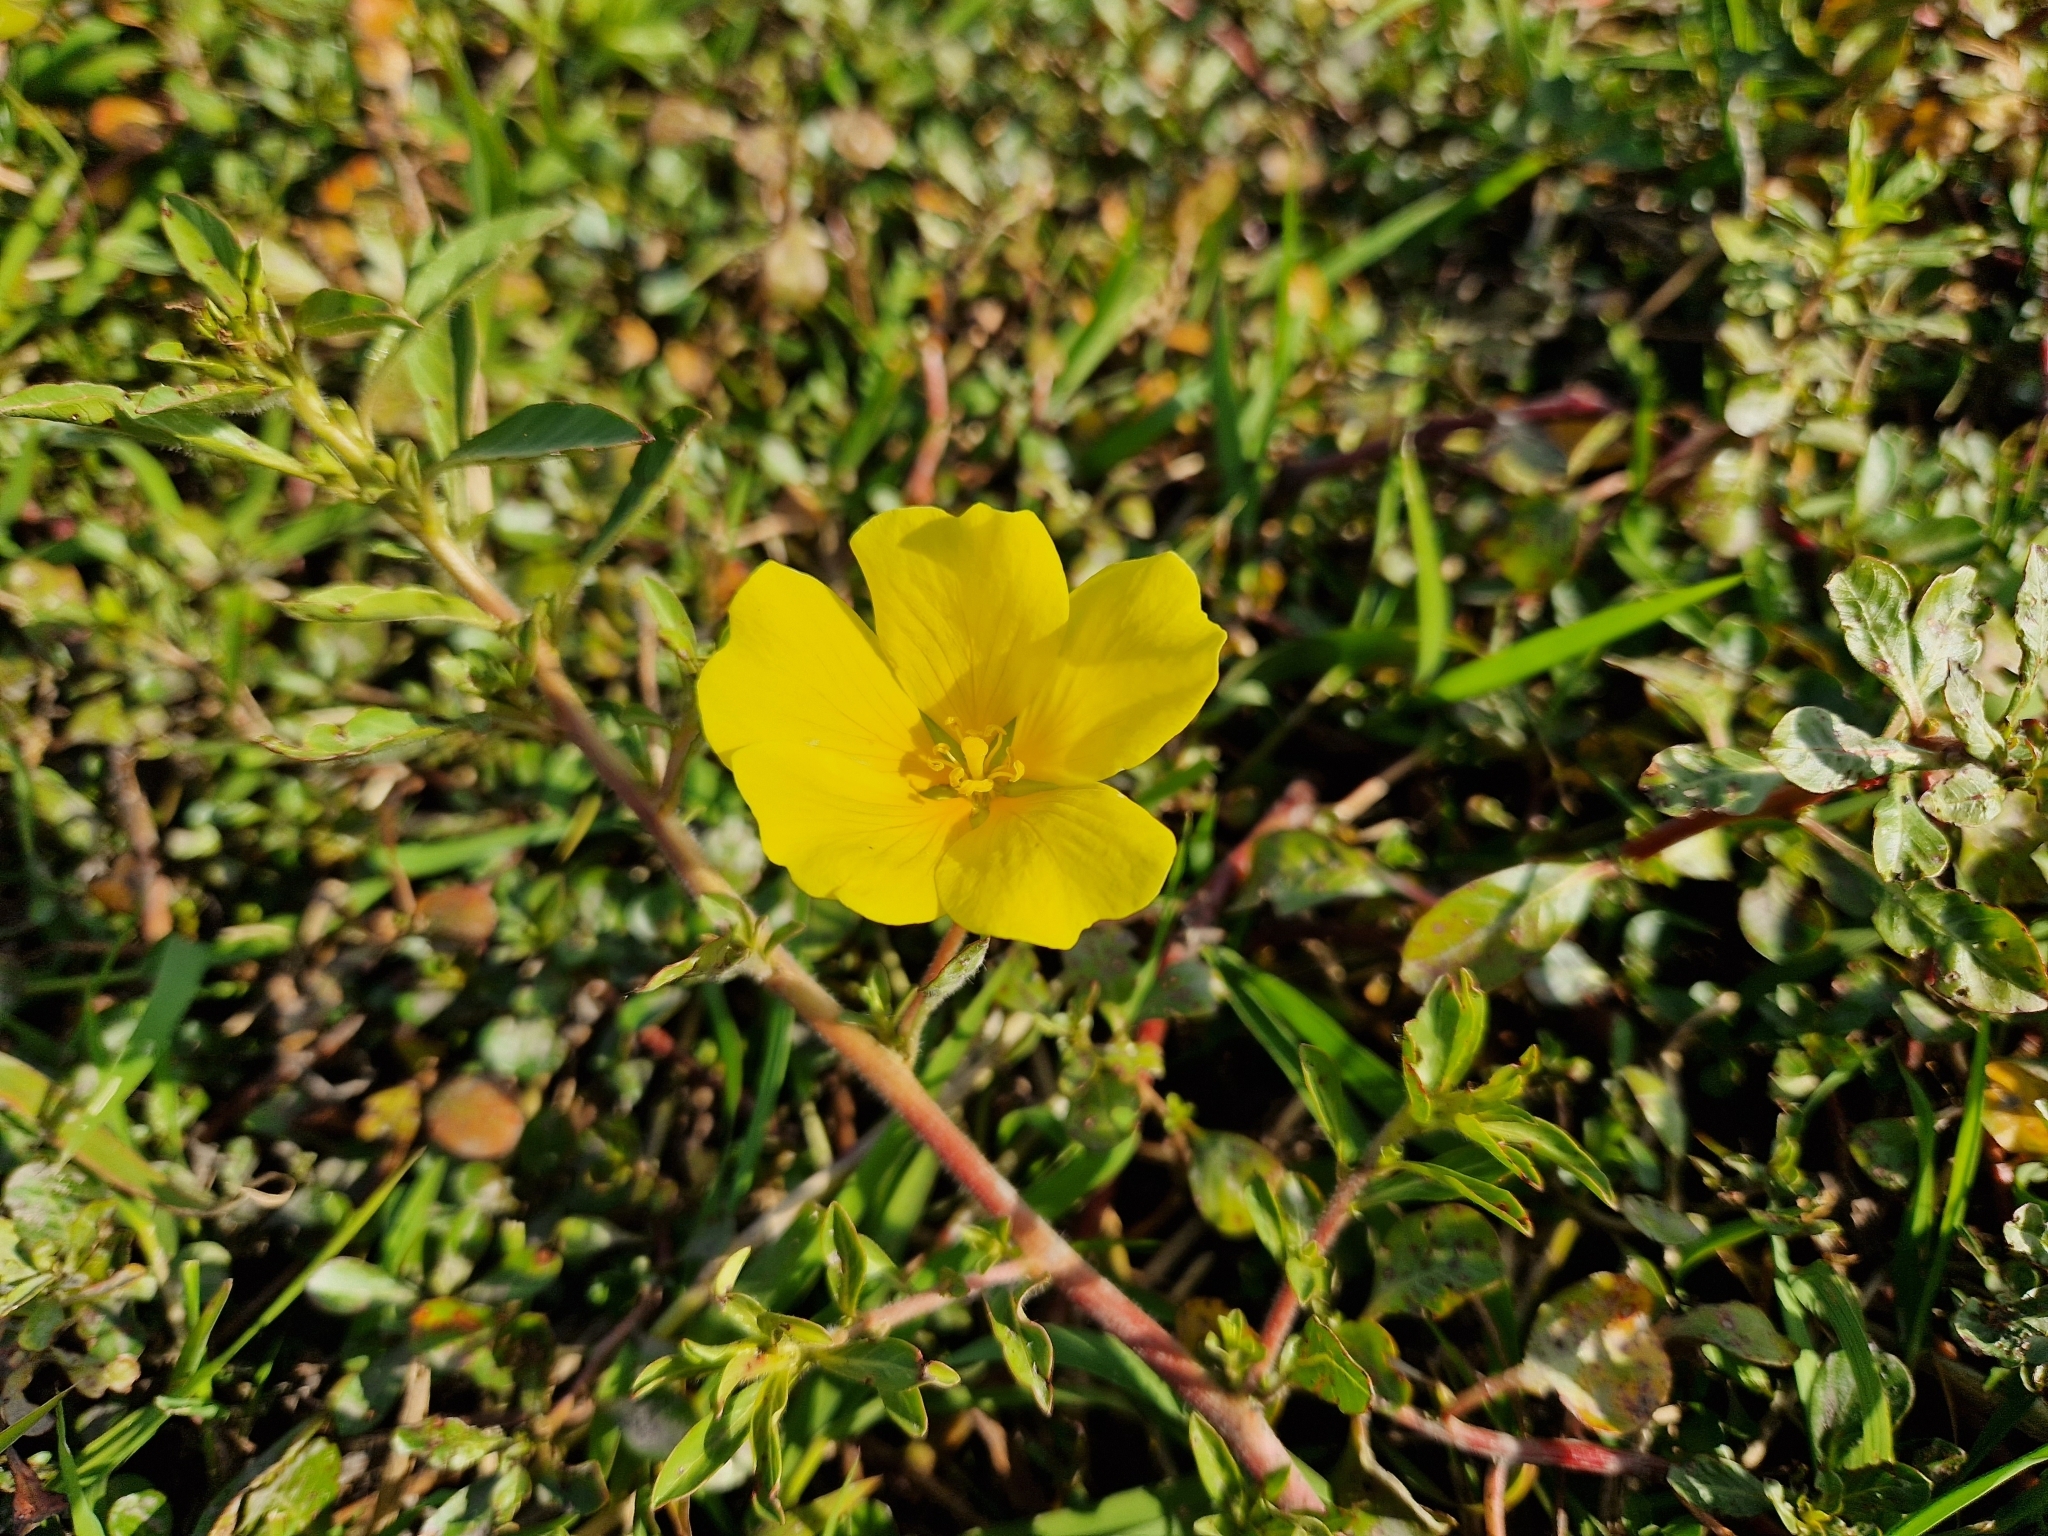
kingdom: Plantae
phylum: Tracheophyta
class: Magnoliopsida
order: Myrtales
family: Onagraceae
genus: Ludwigia
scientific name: Ludwigia peploides
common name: Floating primrose-willow
